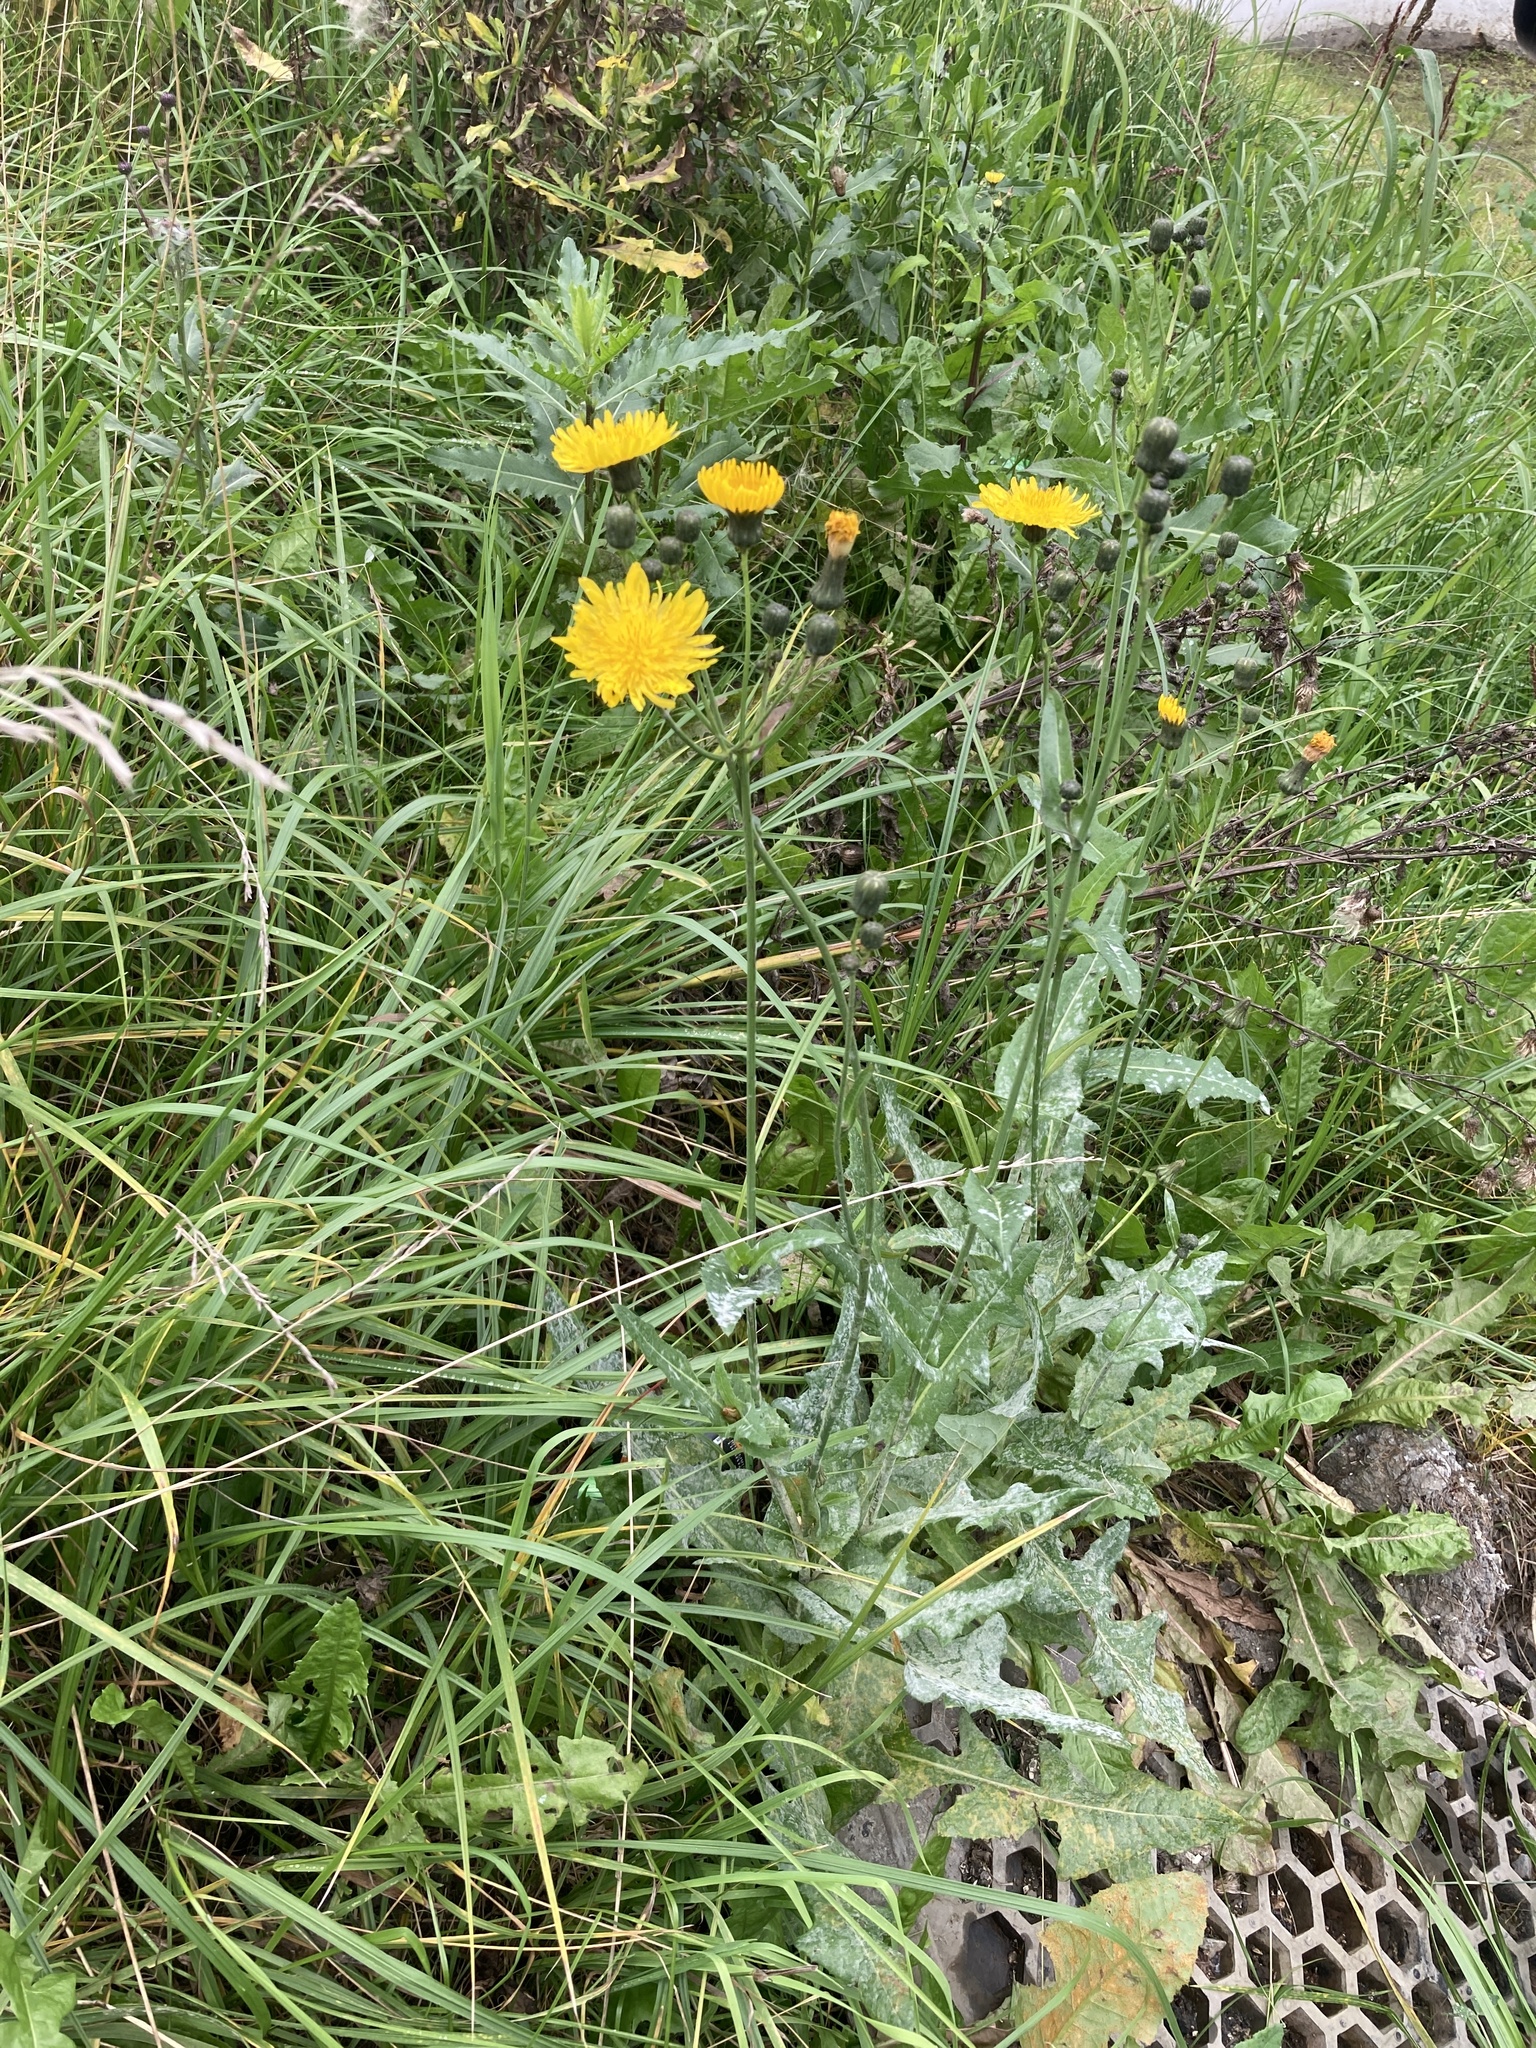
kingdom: Plantae
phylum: Tracheophyta
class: Magnoliopsida
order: Asterales
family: Asteraceae
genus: Sonchus
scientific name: Sonchus arvensis
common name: Perennial sow-thistle
